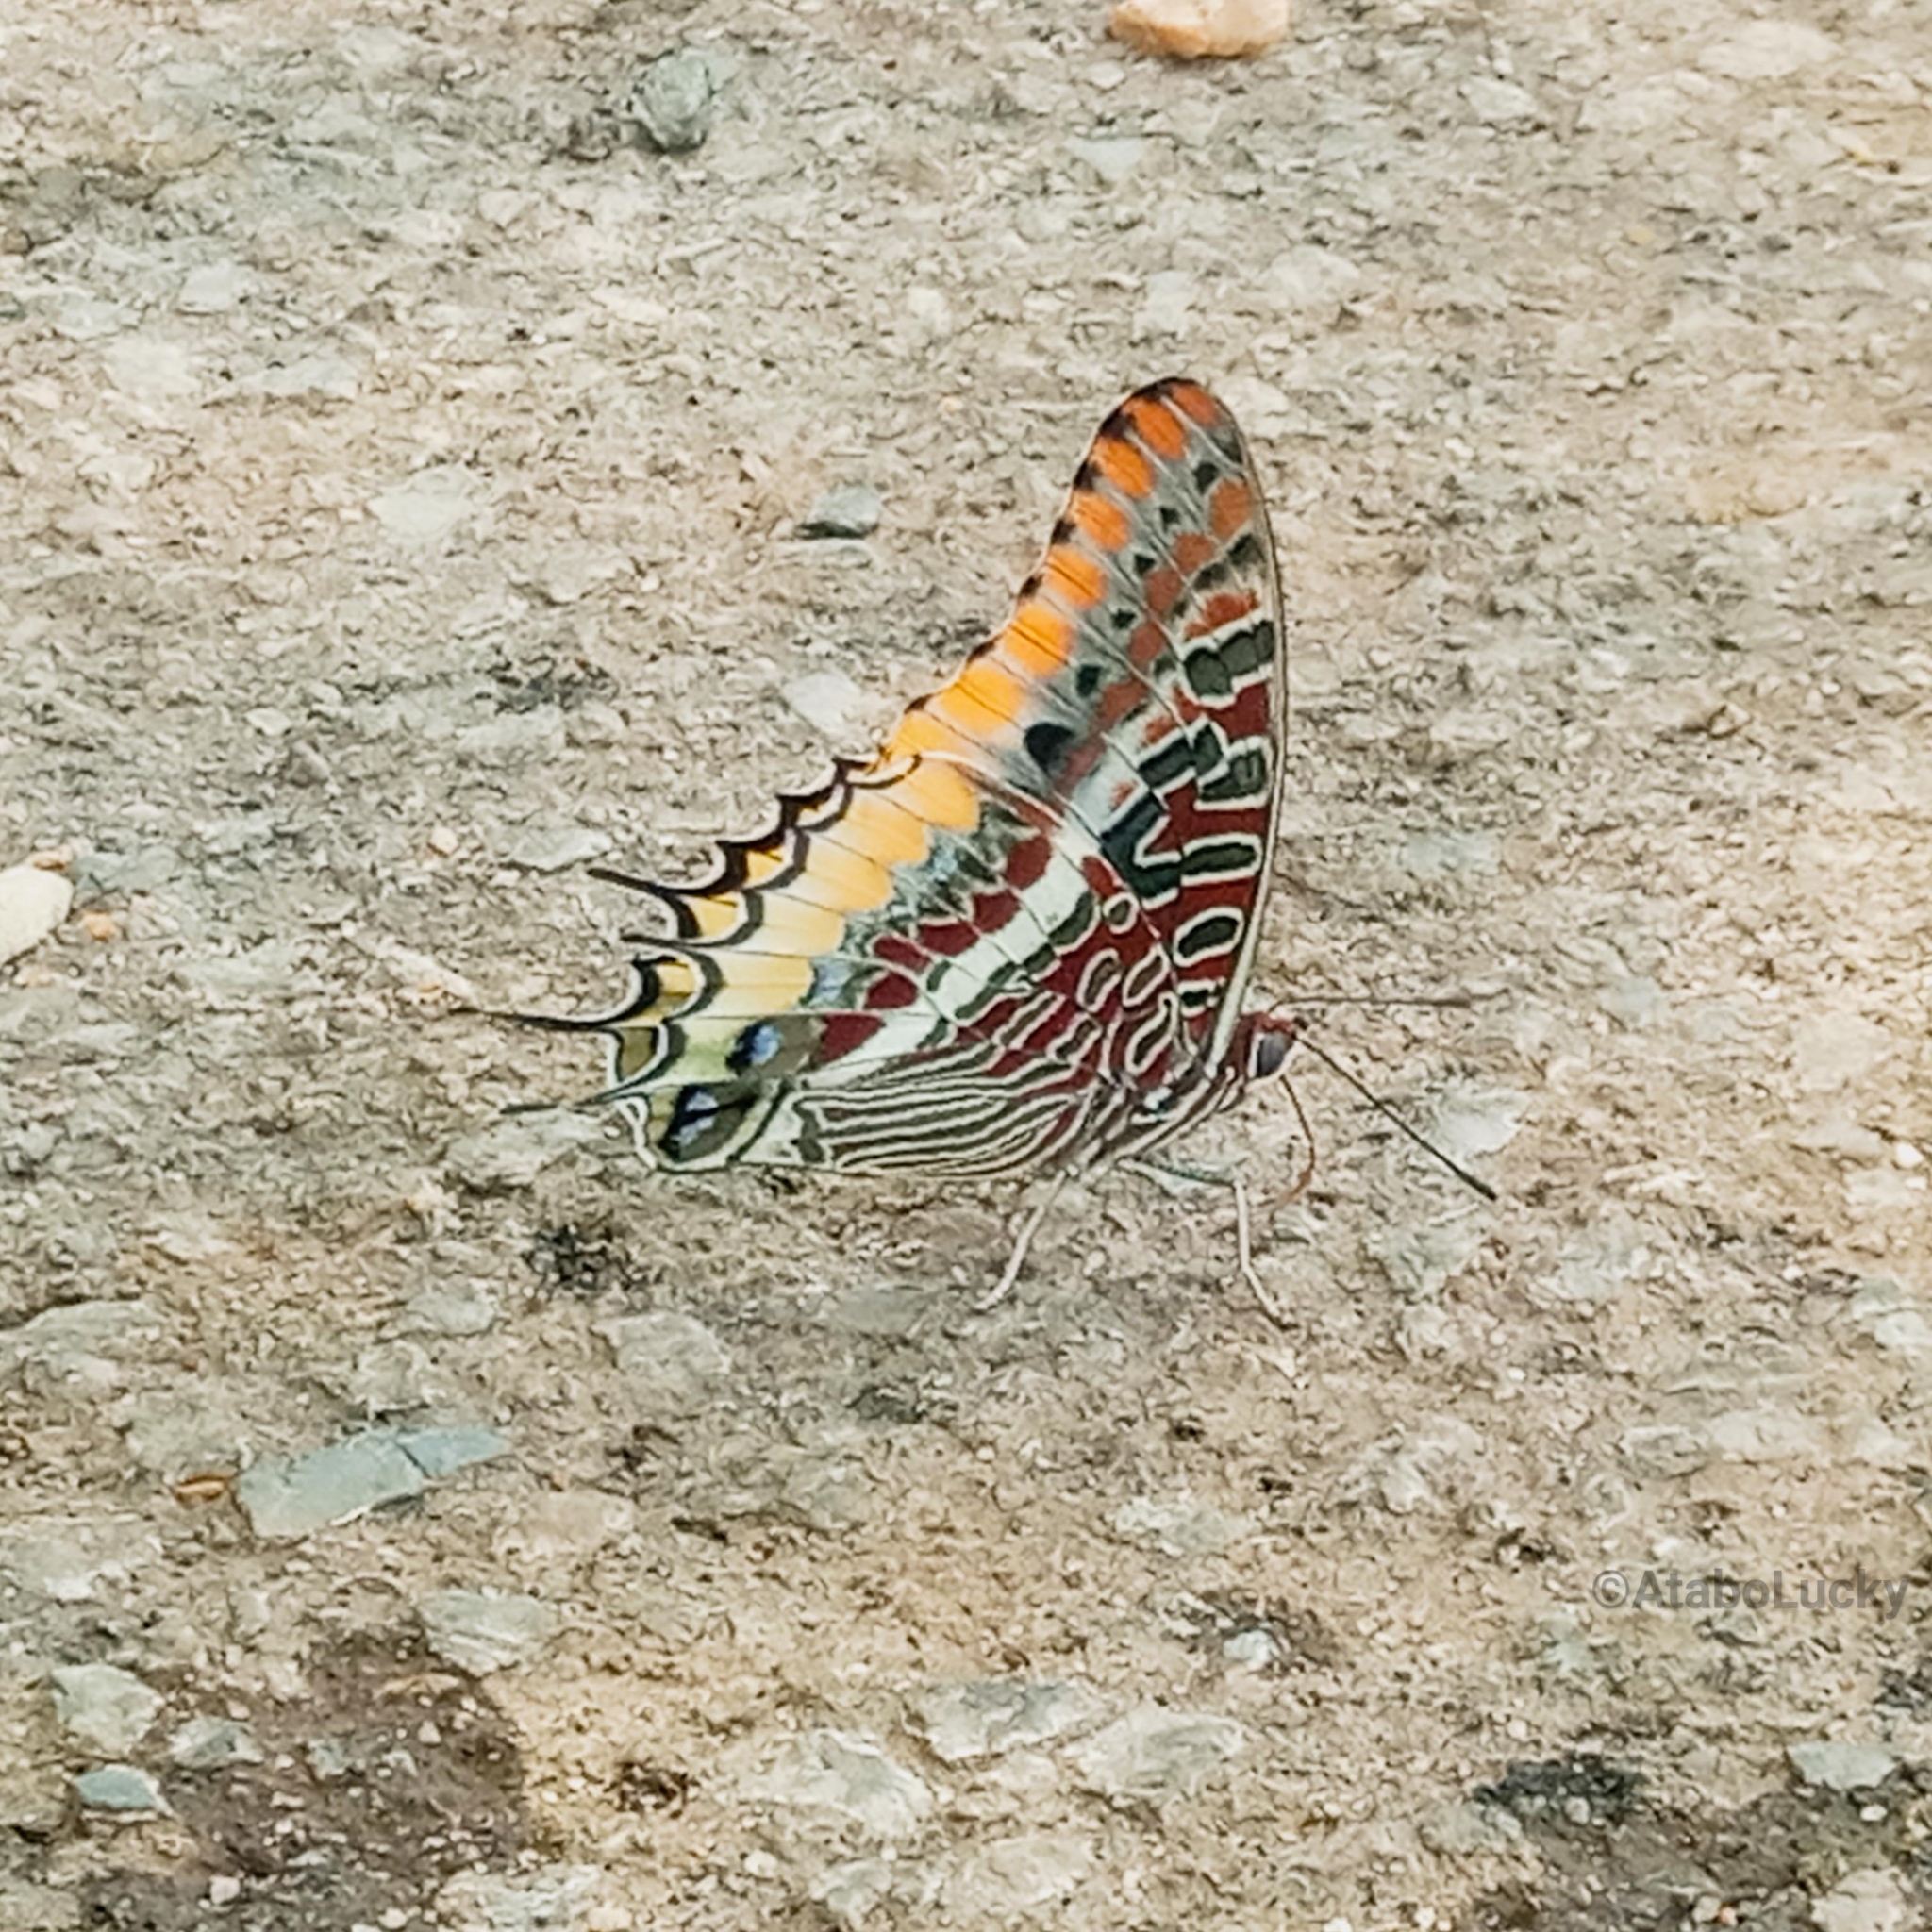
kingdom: Animalia
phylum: Arthropoda
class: Insecta
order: Lepidoptera
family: Nymphalidae
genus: Charaxes
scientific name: Charaxes jasius
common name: Two tailed pasha
